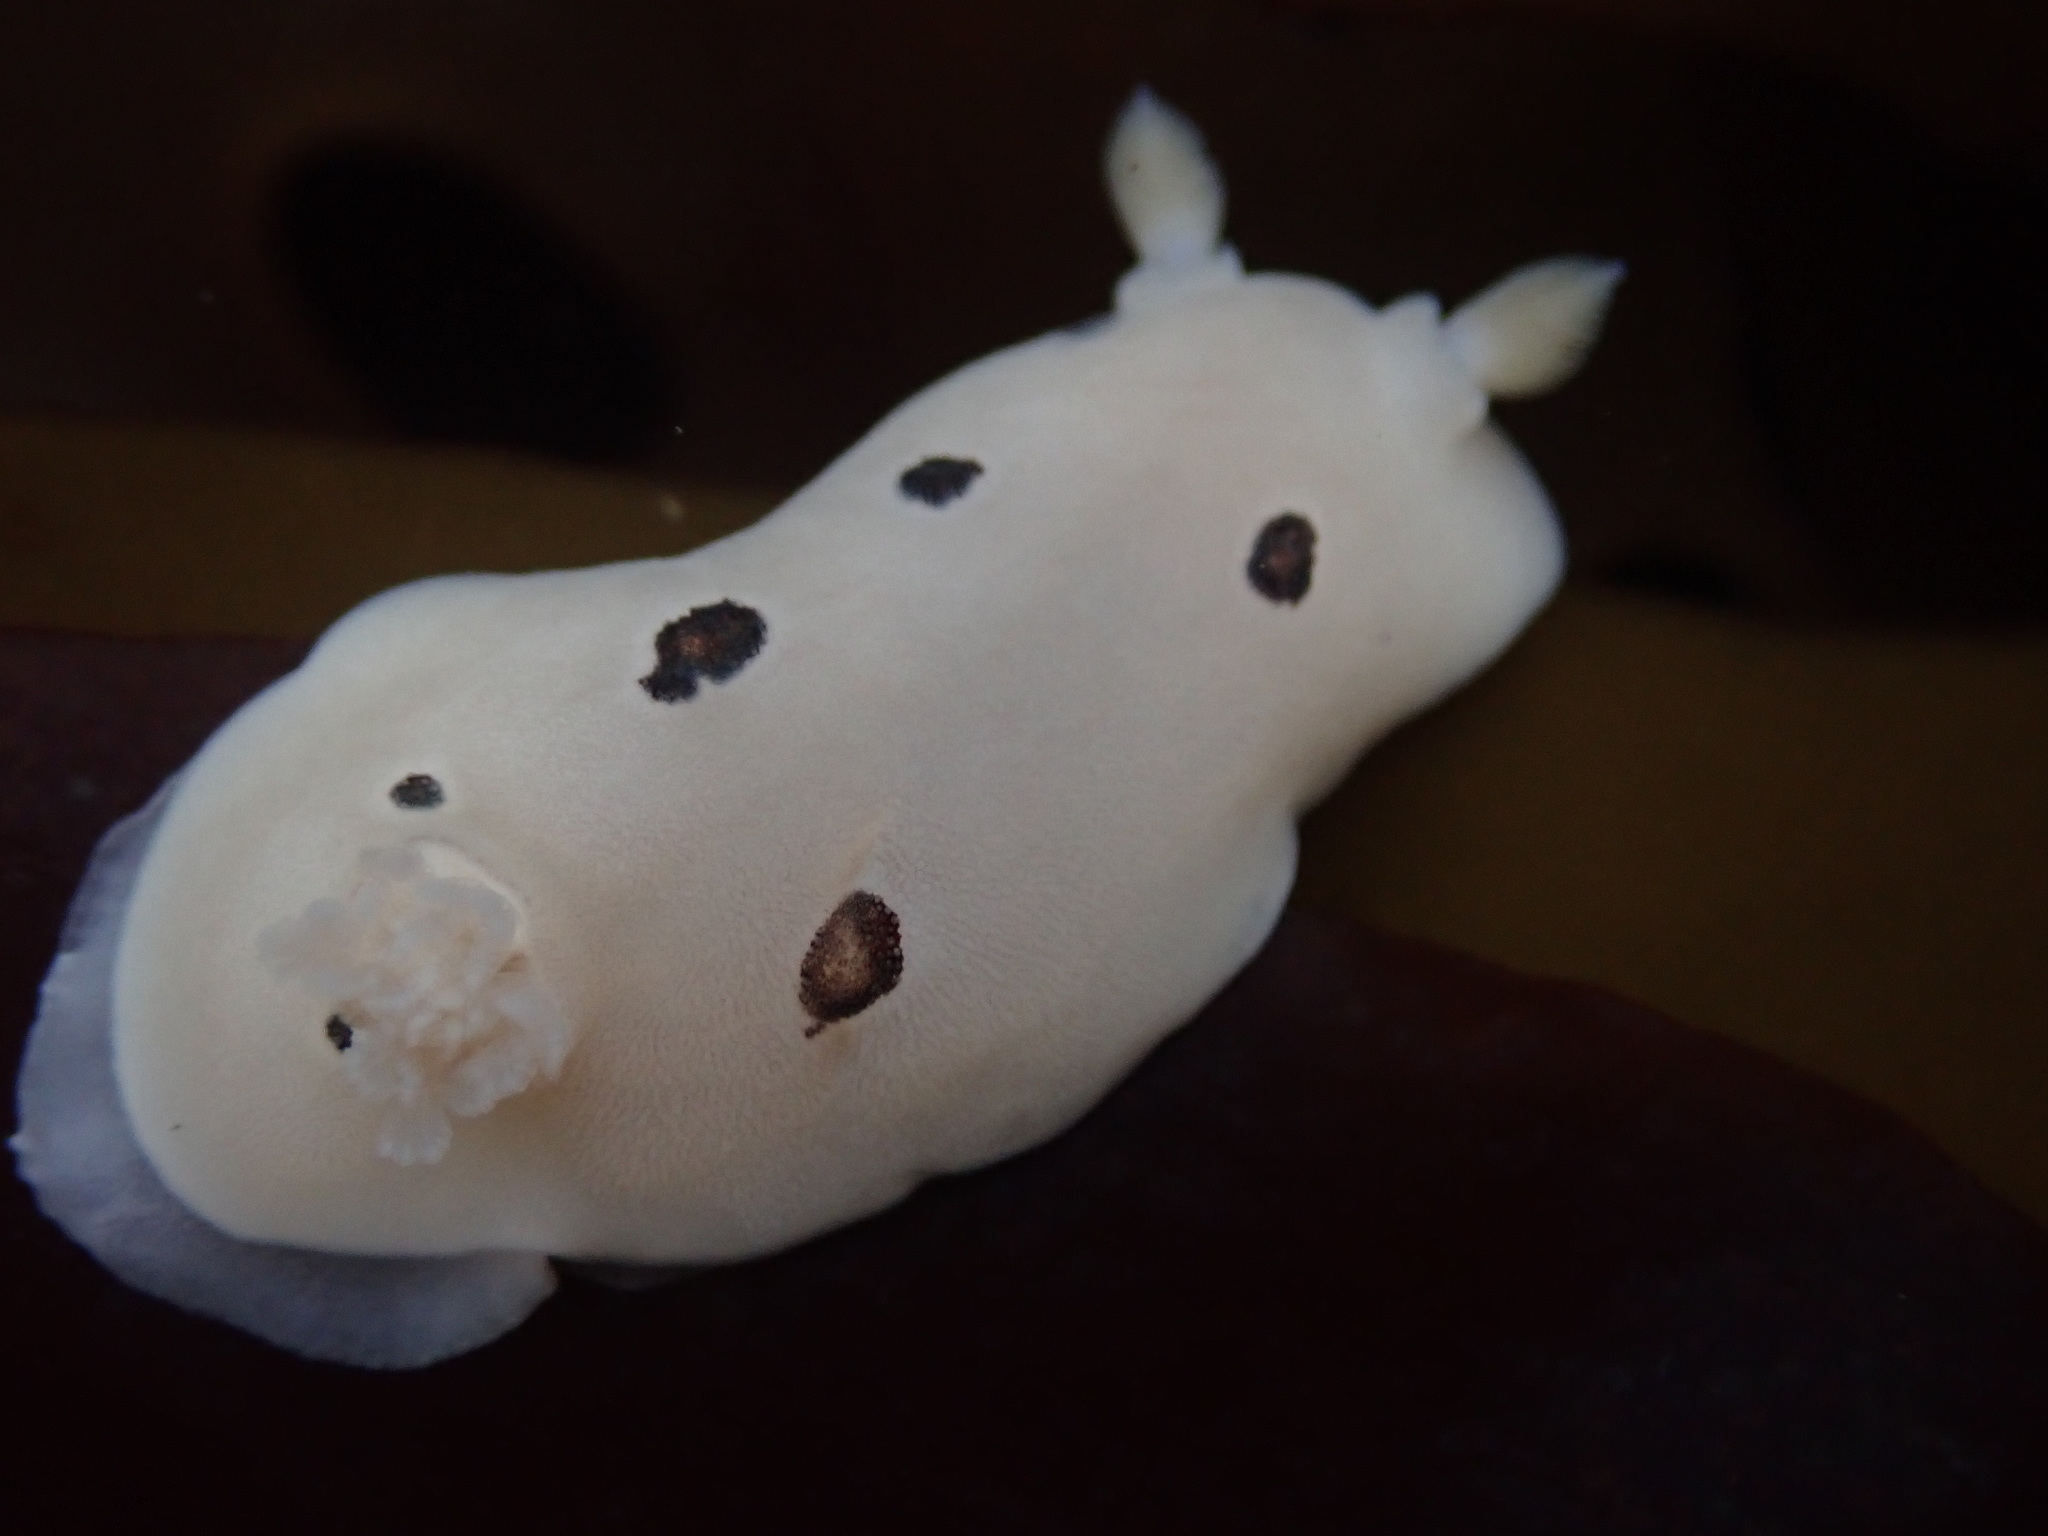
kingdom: Animalia
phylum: Mollusca
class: Gastropoda
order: Nudibranchia
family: Discodorididae
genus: Diaulula
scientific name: Diaulula sandiegensis
